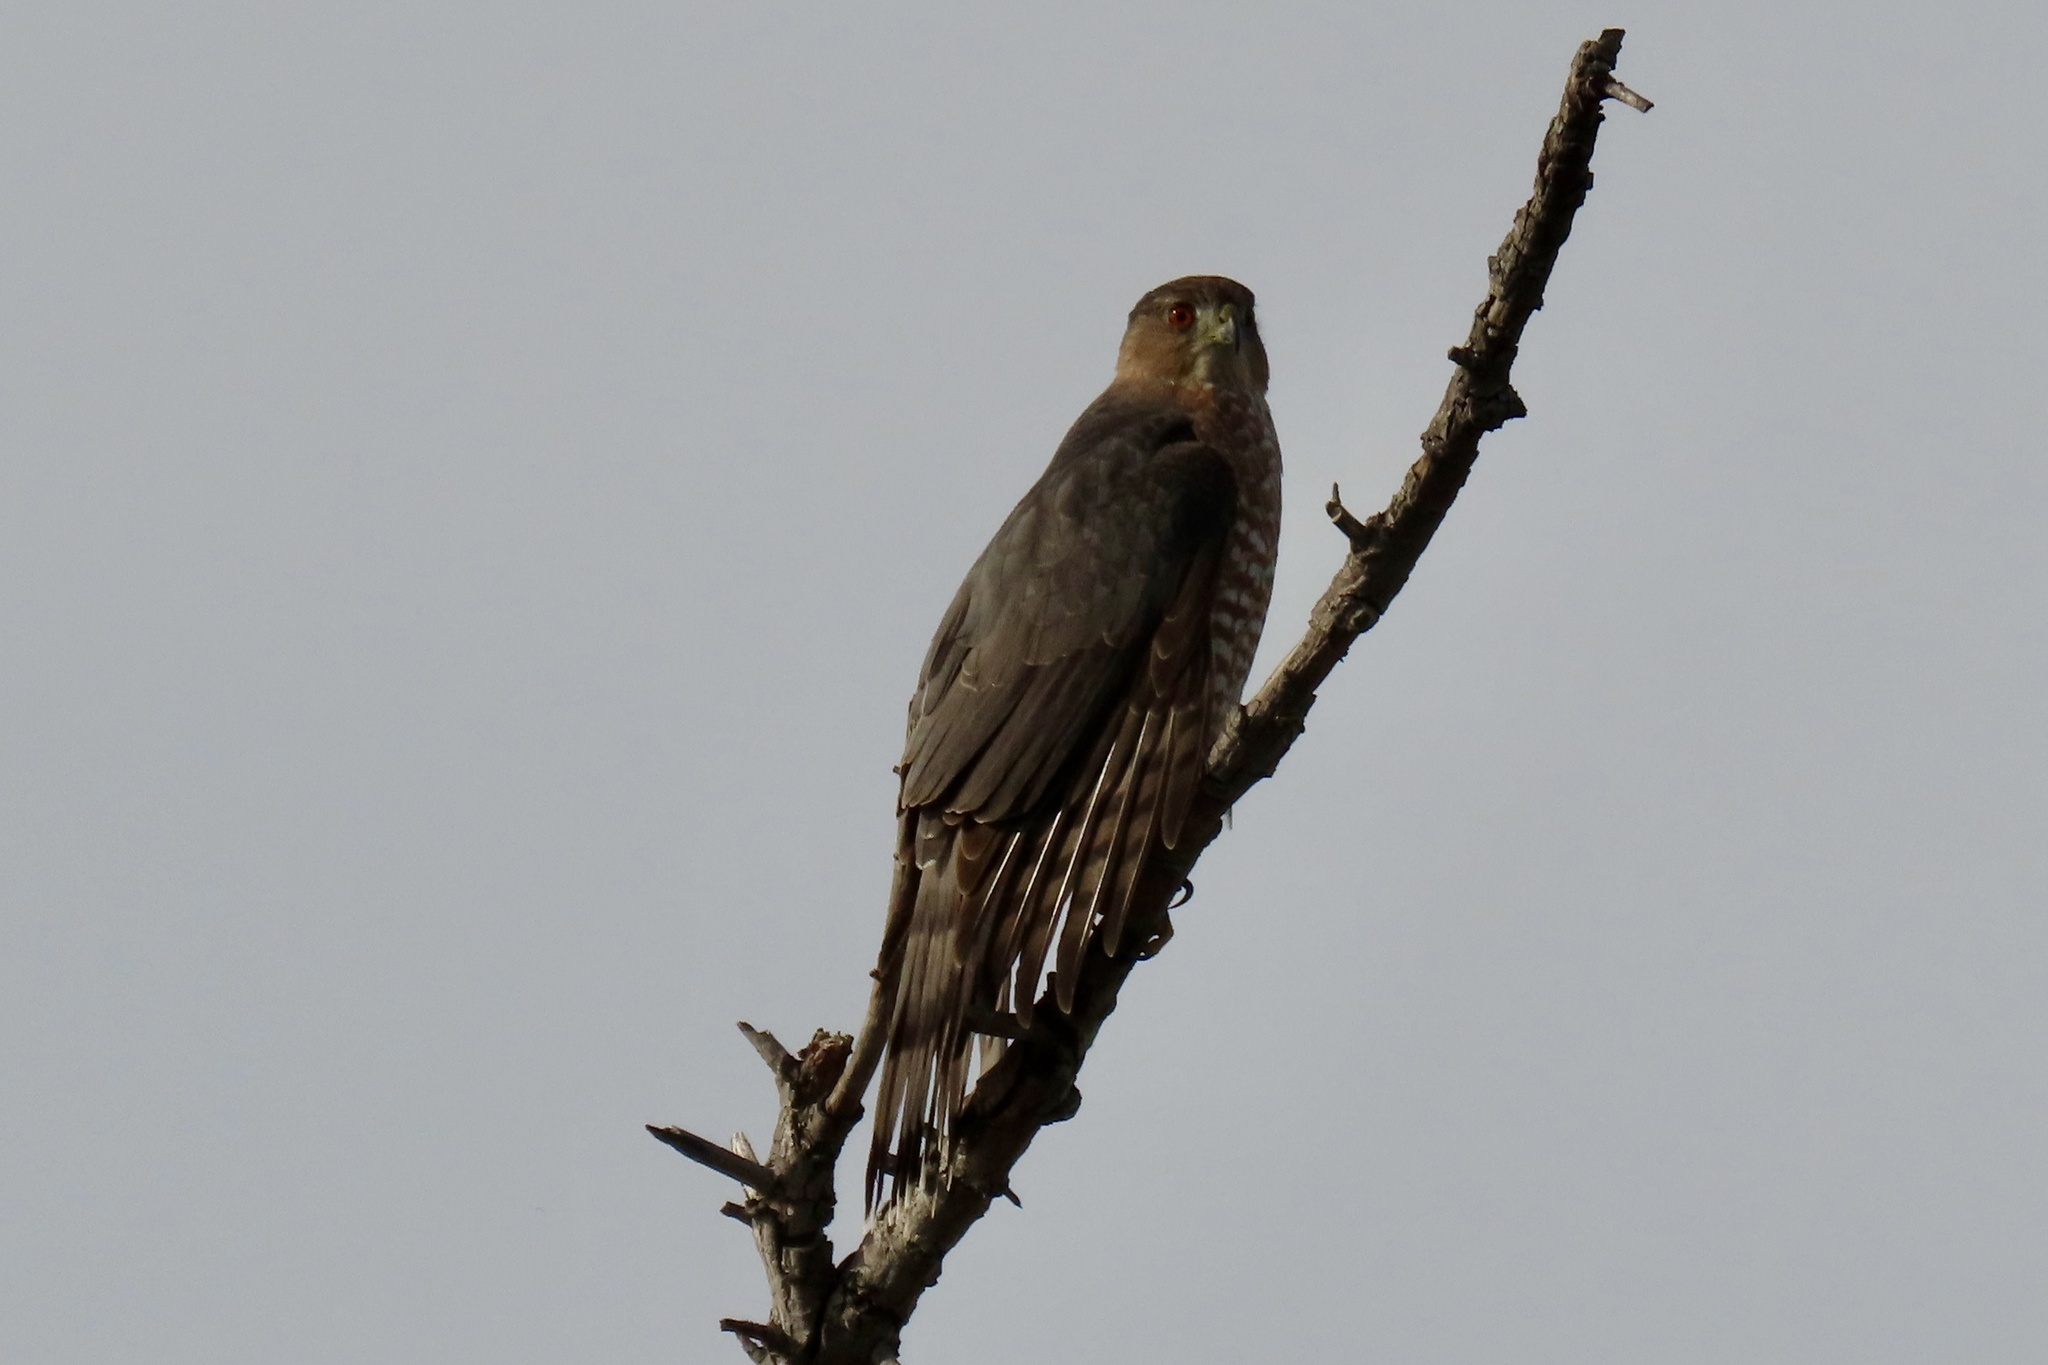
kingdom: Animalia
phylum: Chordata
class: Aves
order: Accipitriformes
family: Accipitridae
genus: Accipiter
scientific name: Accipiter cooperii
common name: Cooper's hawk
